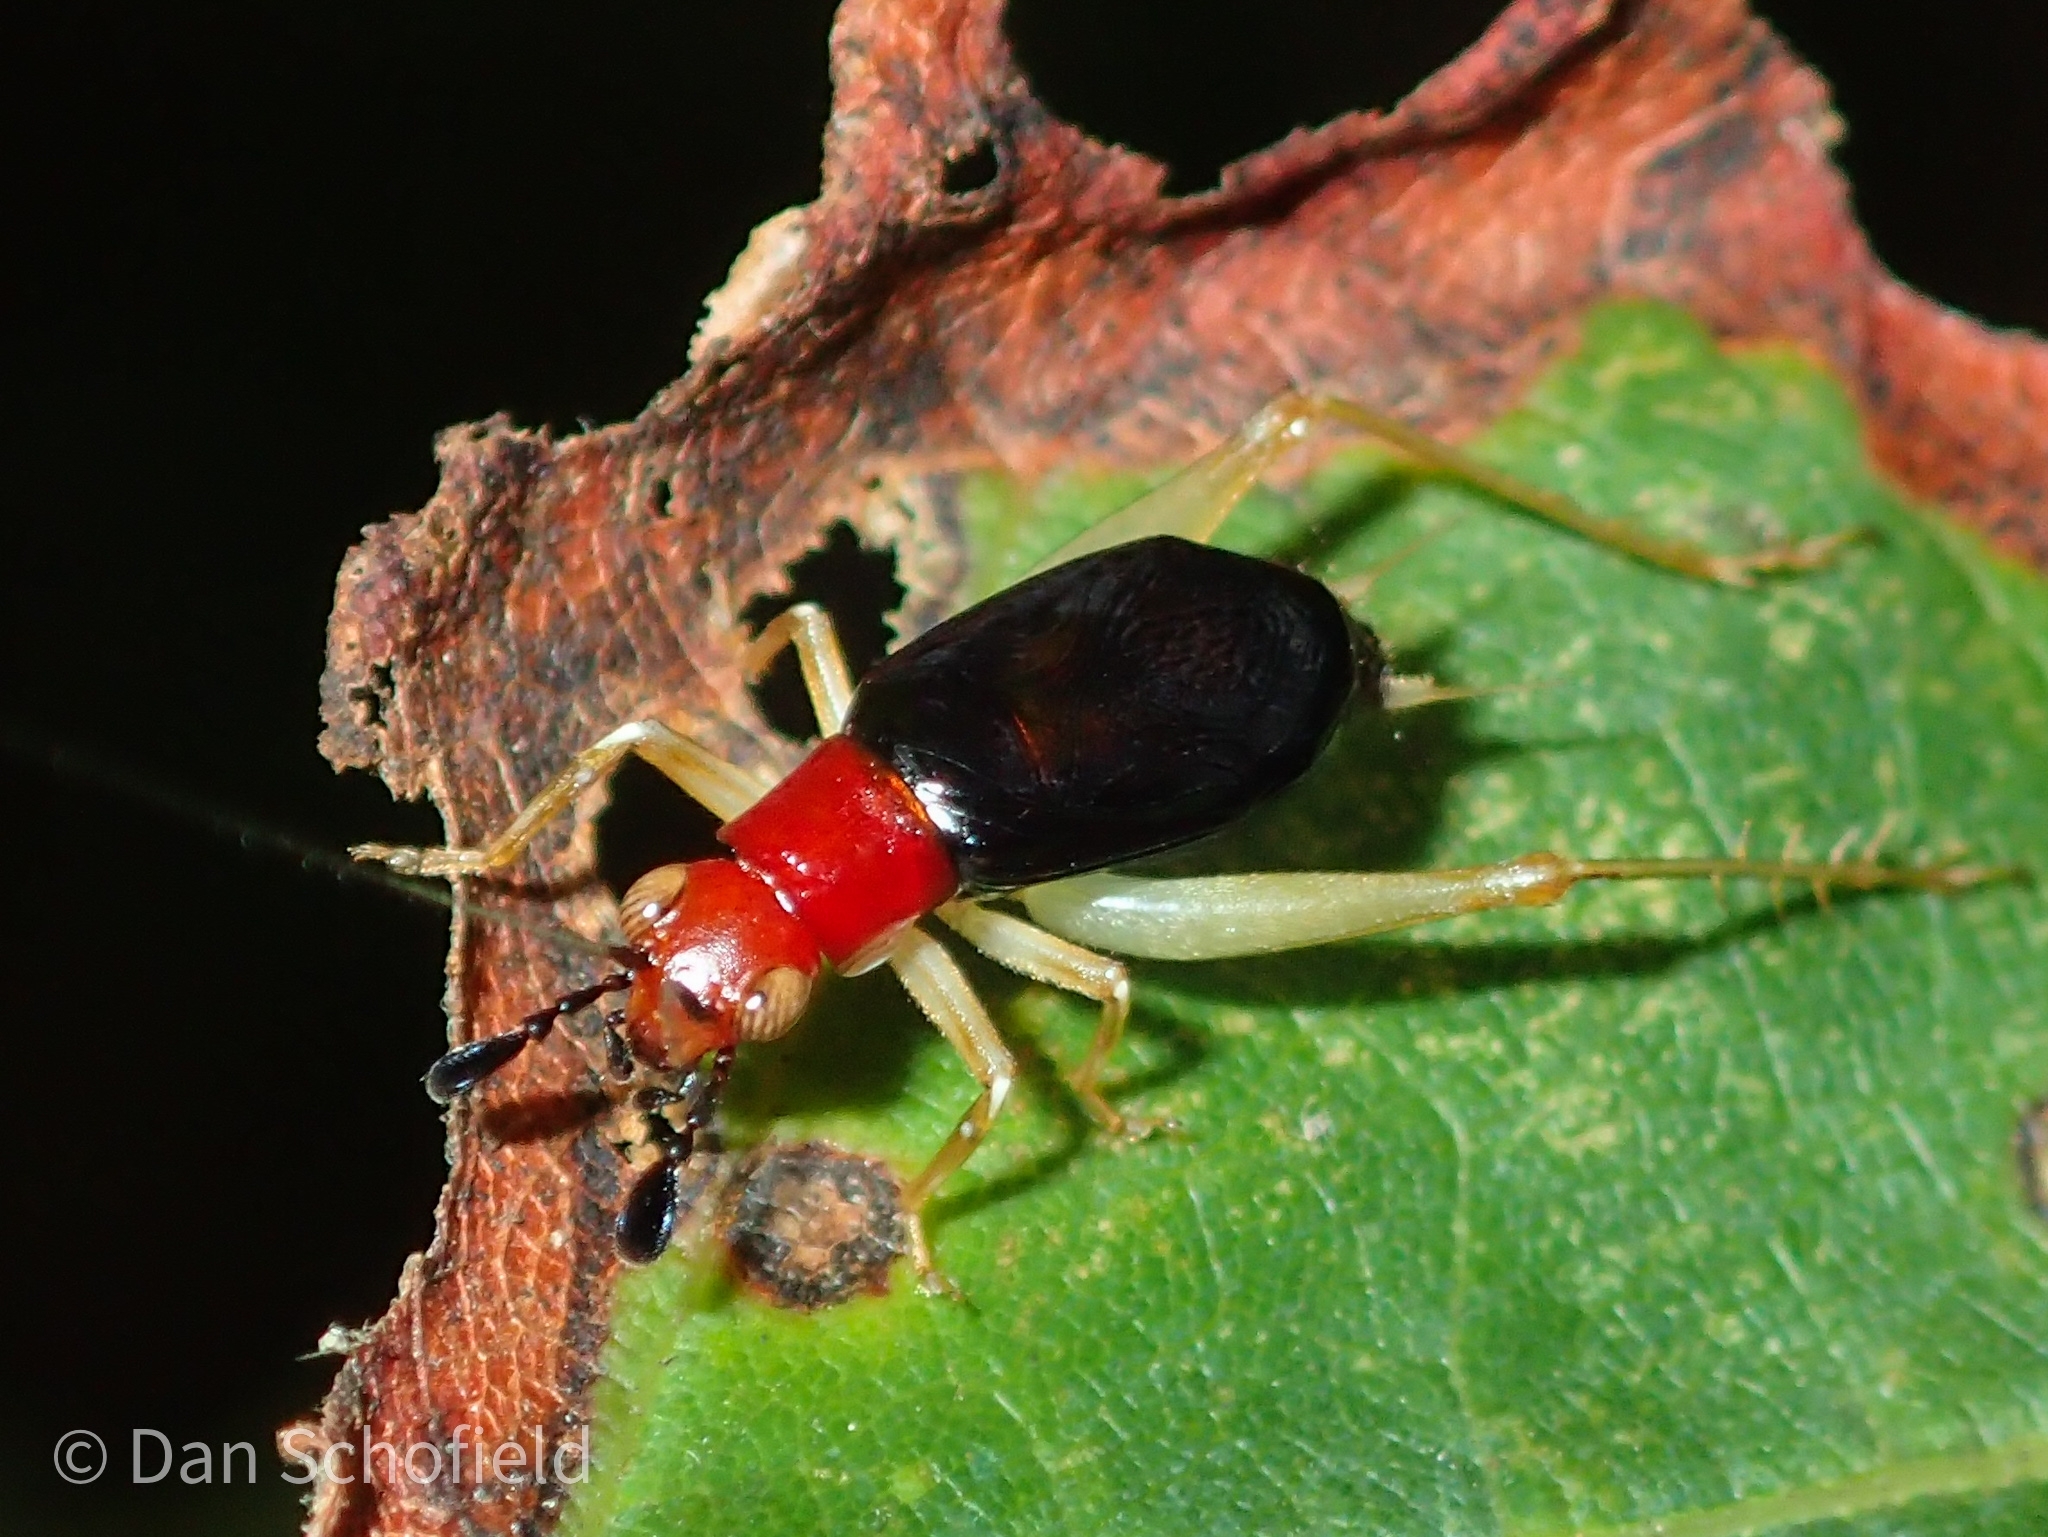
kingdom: Animalia
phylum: Arthropoda
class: Insecta
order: Orthoptera
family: Trigonidiidae
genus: Phyllopalpus
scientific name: Phyllopalpus pulchellus
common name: Handsome trig
